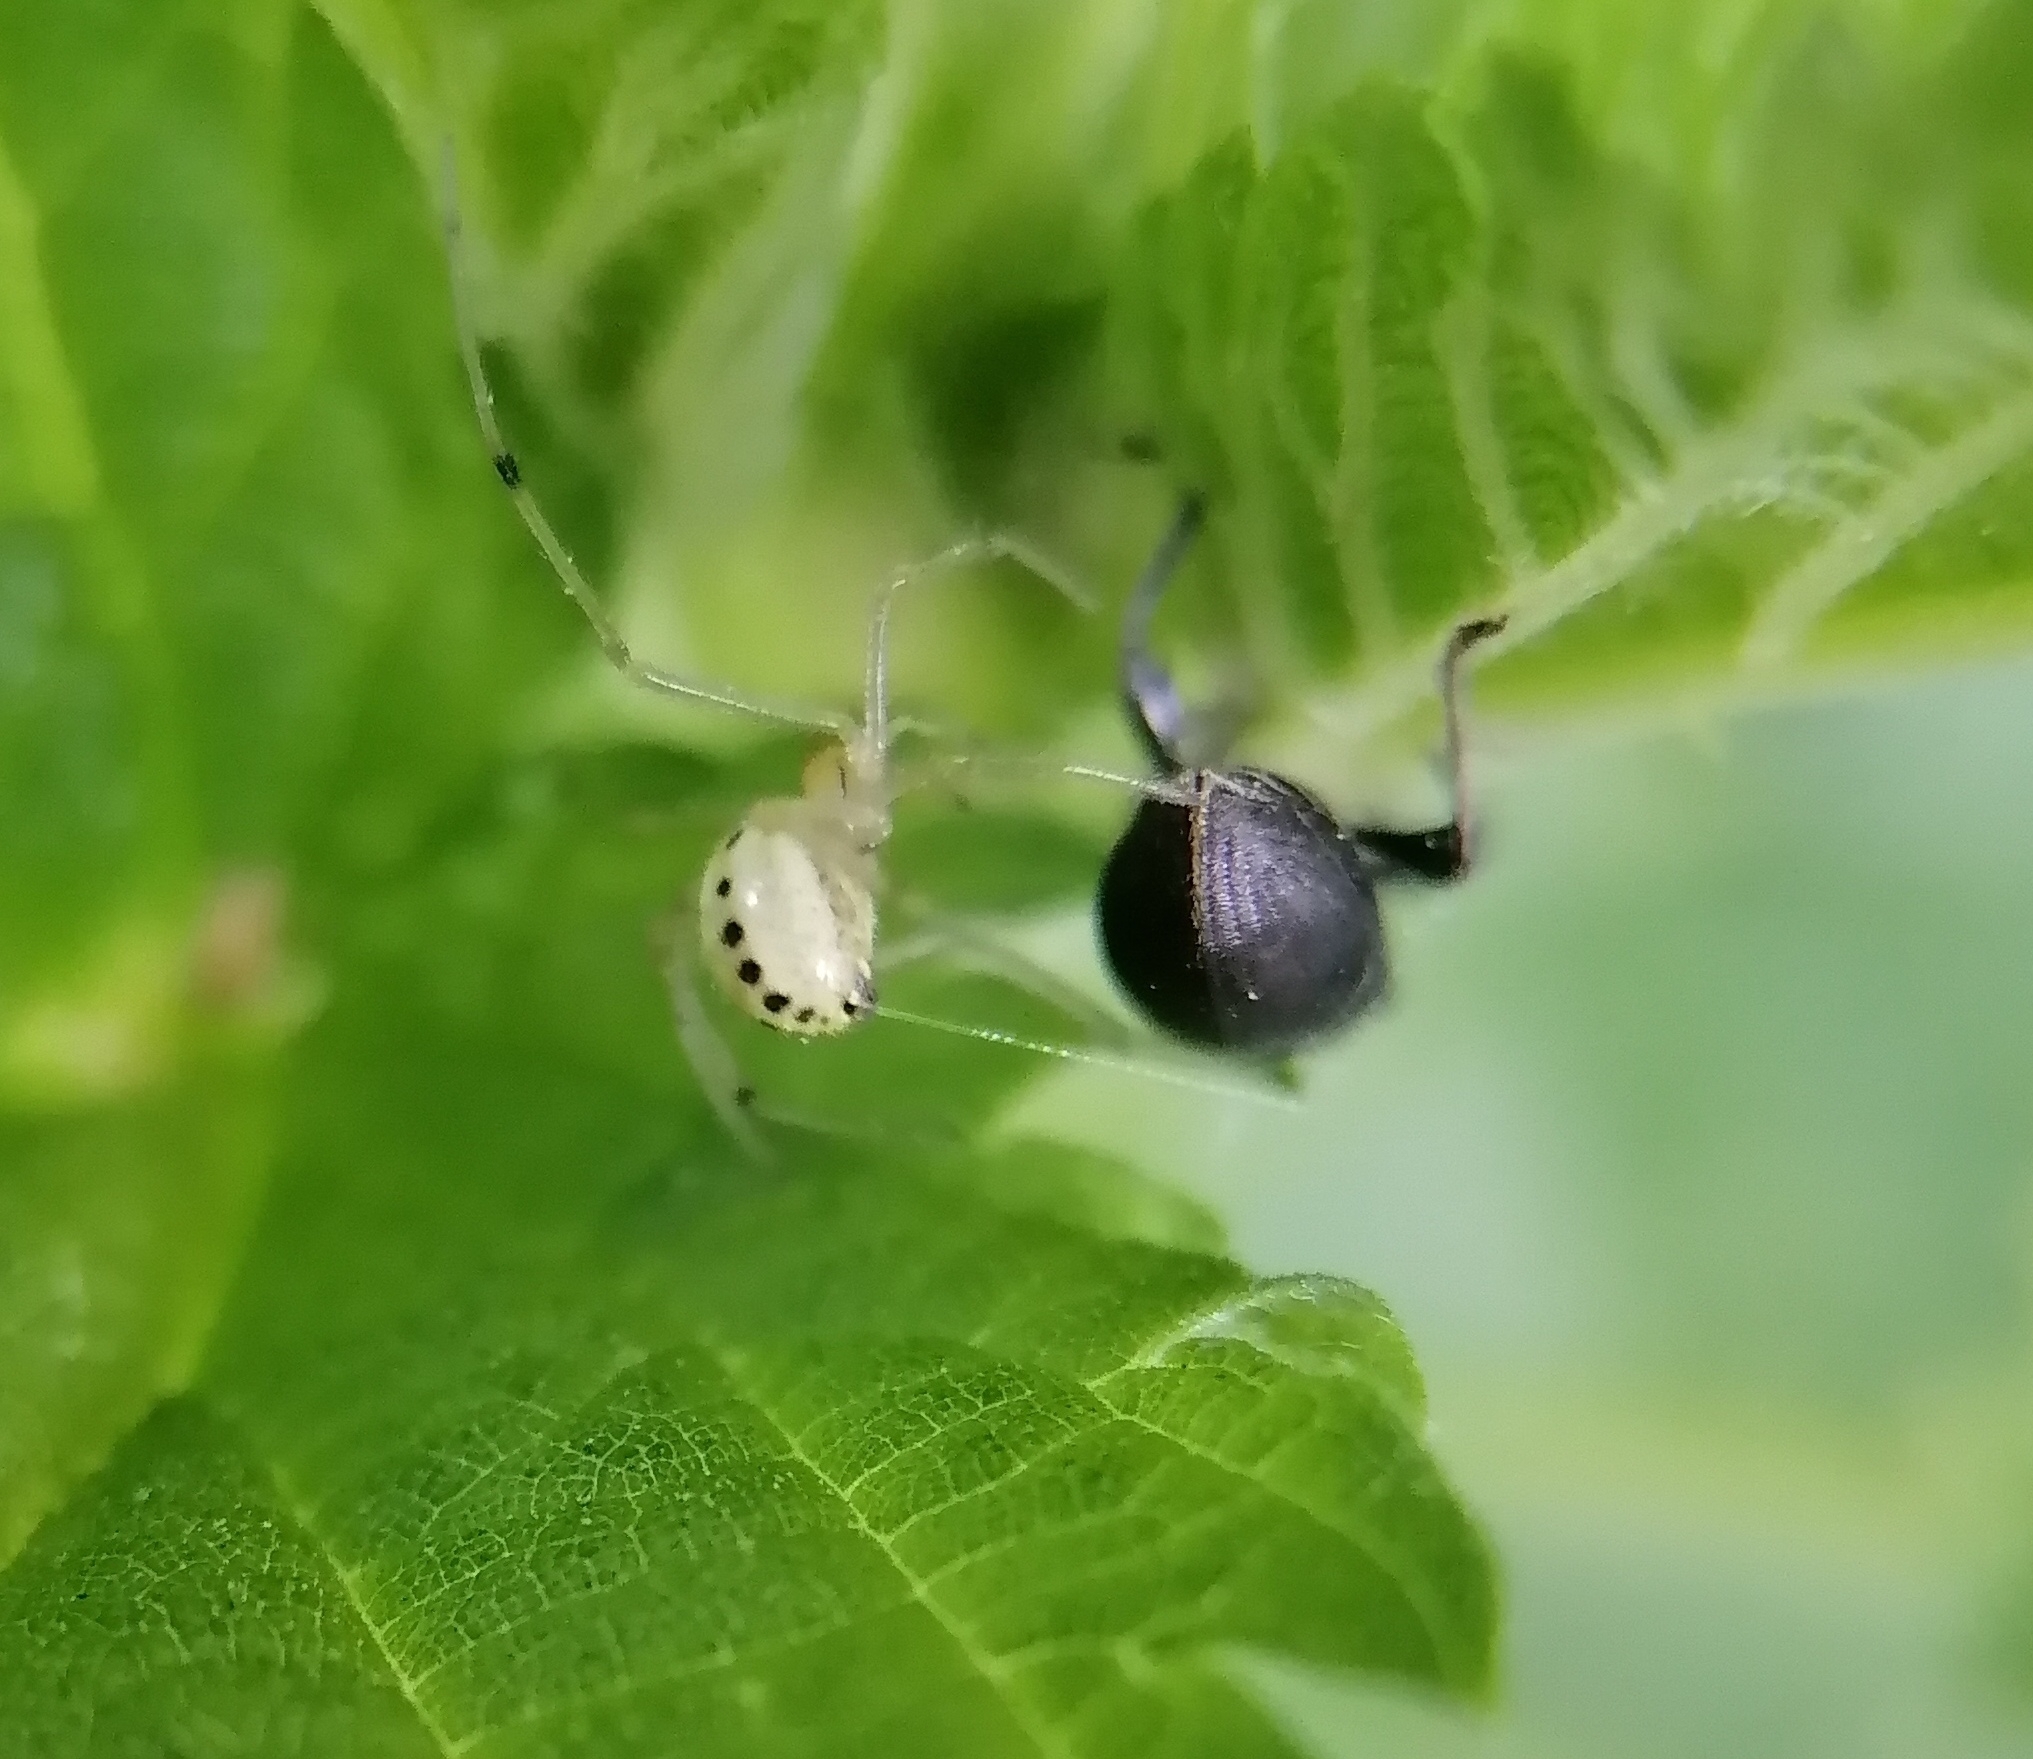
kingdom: Animalia
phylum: Arthropoda
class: Arachnida
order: Araneae
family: Theridiidae
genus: Enoplognatha
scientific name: Enoplognatha ovata
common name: Common candy-striped spider
